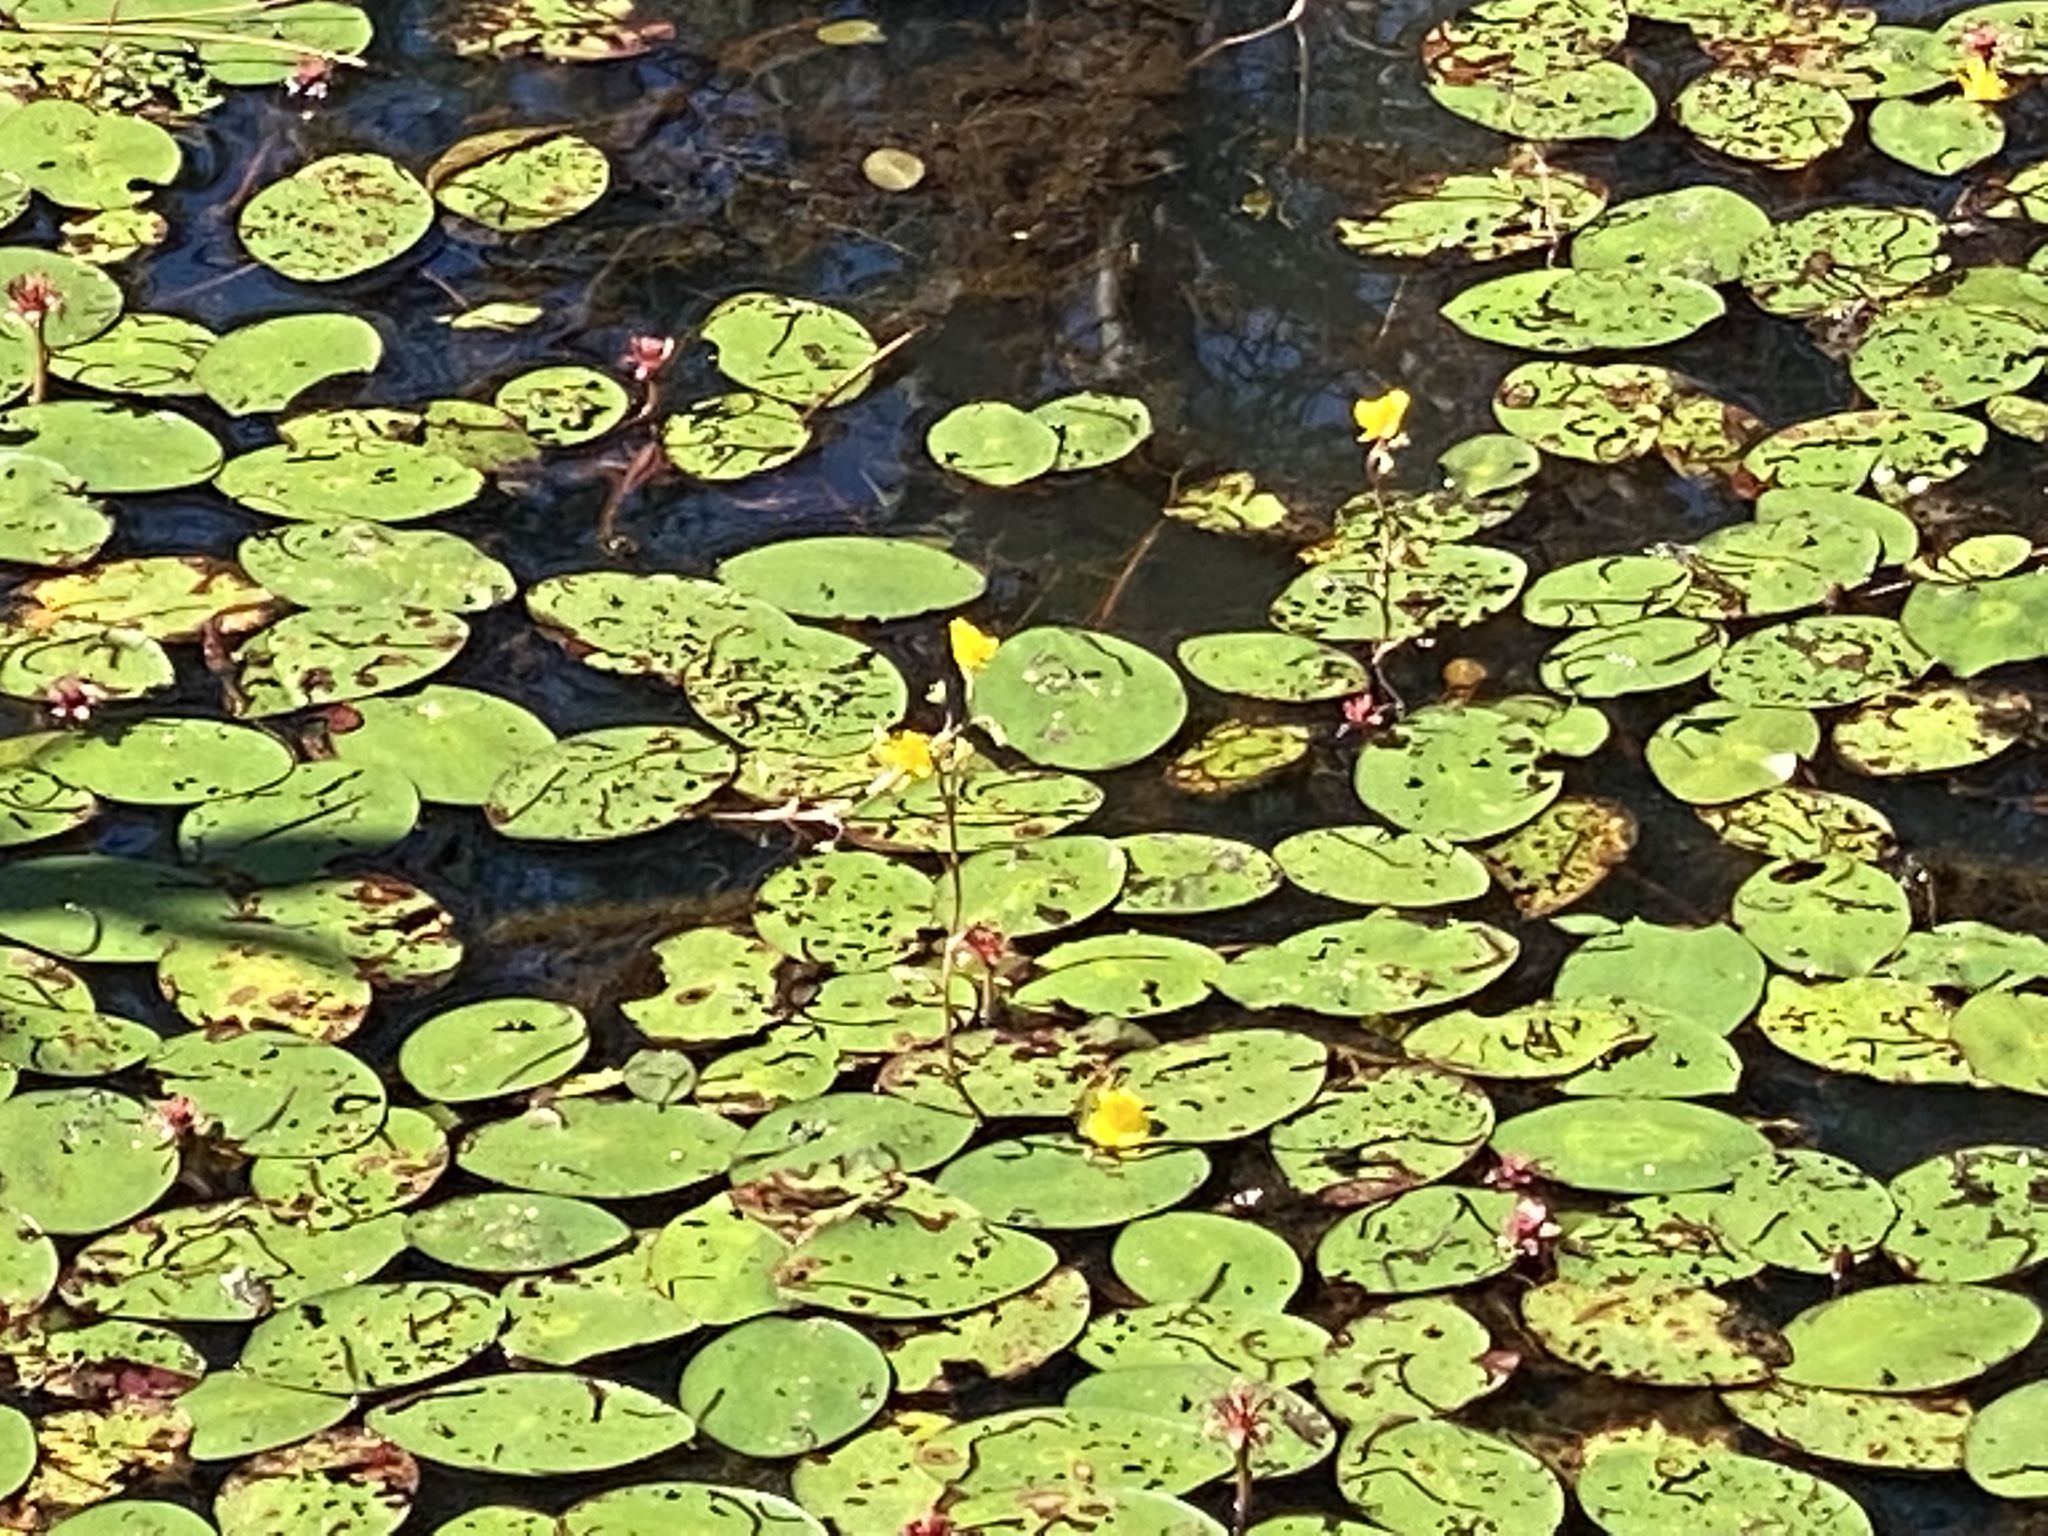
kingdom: Plantae
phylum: Tracheophyta
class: Magnoliopsida
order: Nymphaeales
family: Cabombaceae
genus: Brasenia
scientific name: Brasenia schreberi
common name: Water-shield
